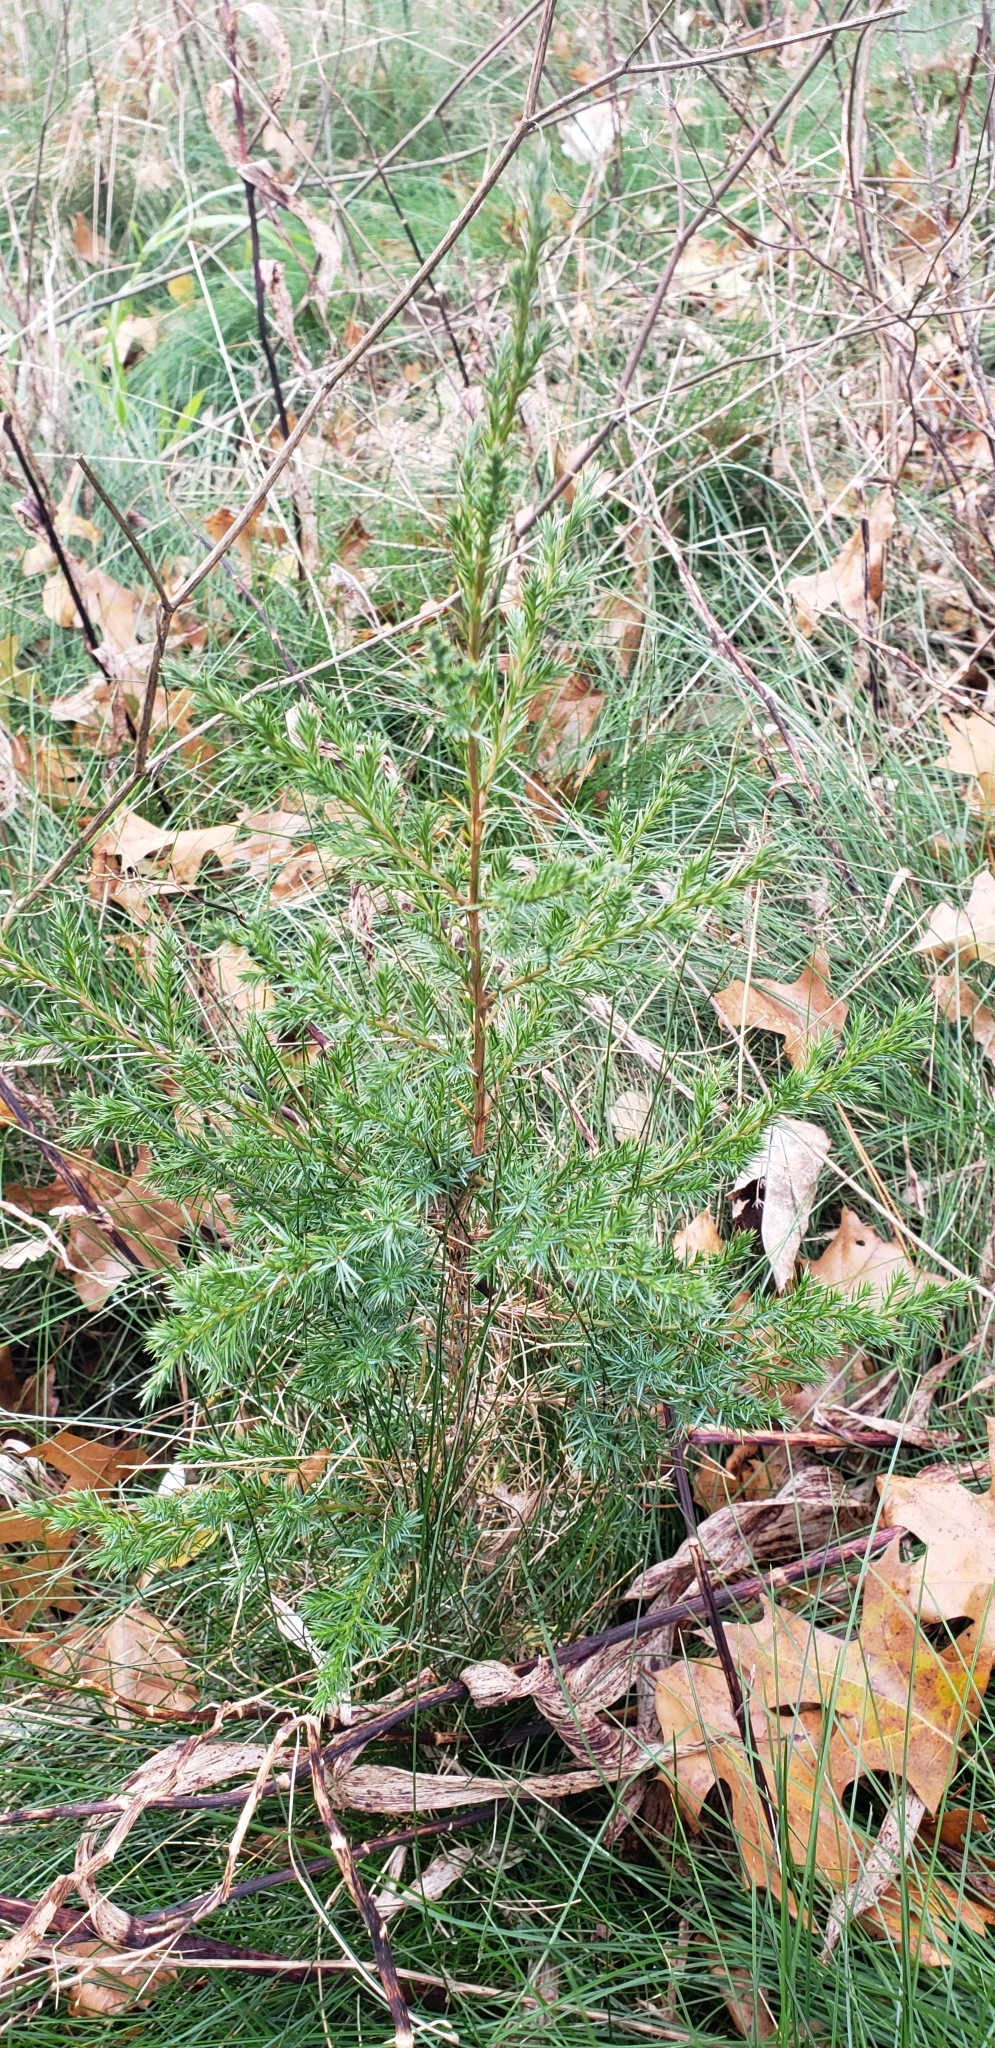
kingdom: Plantae
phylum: Tracheophyta
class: Pinopsida
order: Pinales
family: Cupressaceae
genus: Juniperus
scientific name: Juniperus virginiana
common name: Red juniper
